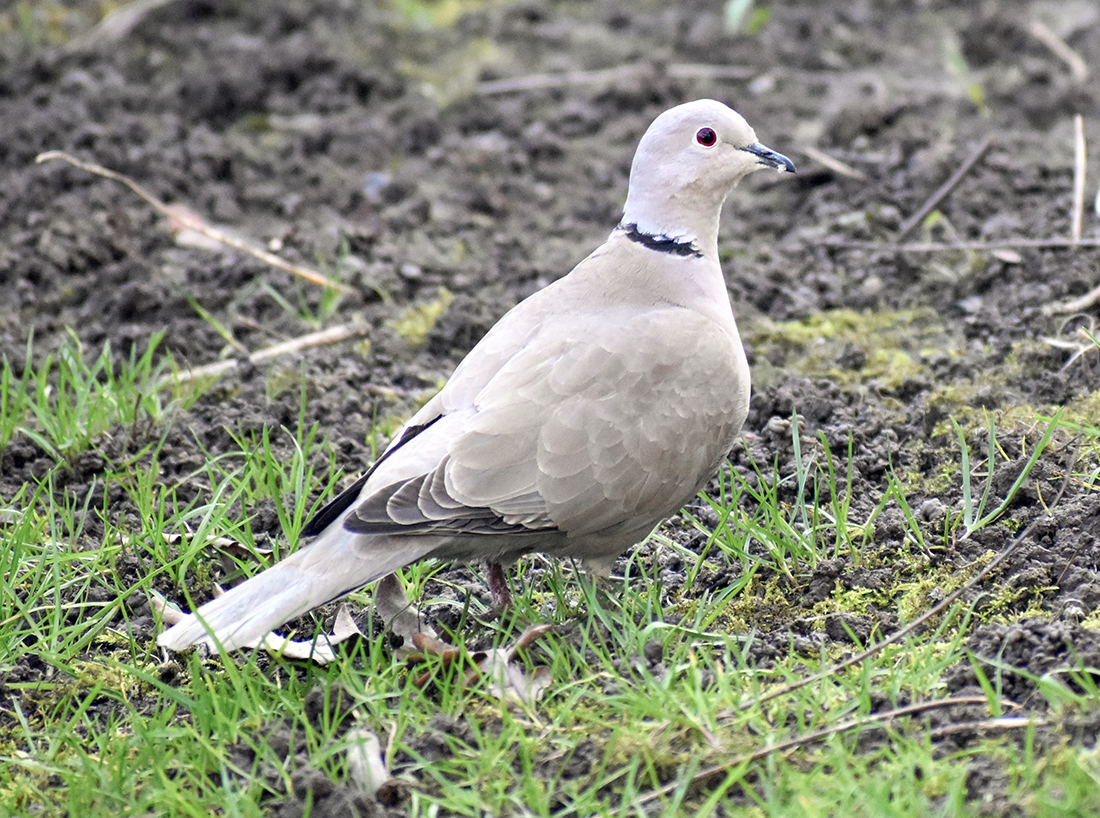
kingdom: Animalia
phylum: Chordata
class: Aves
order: Columbiformes
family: Columbidae
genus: Streptopelia
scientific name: Streptopelia decaocto
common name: Eurasian collared dove
